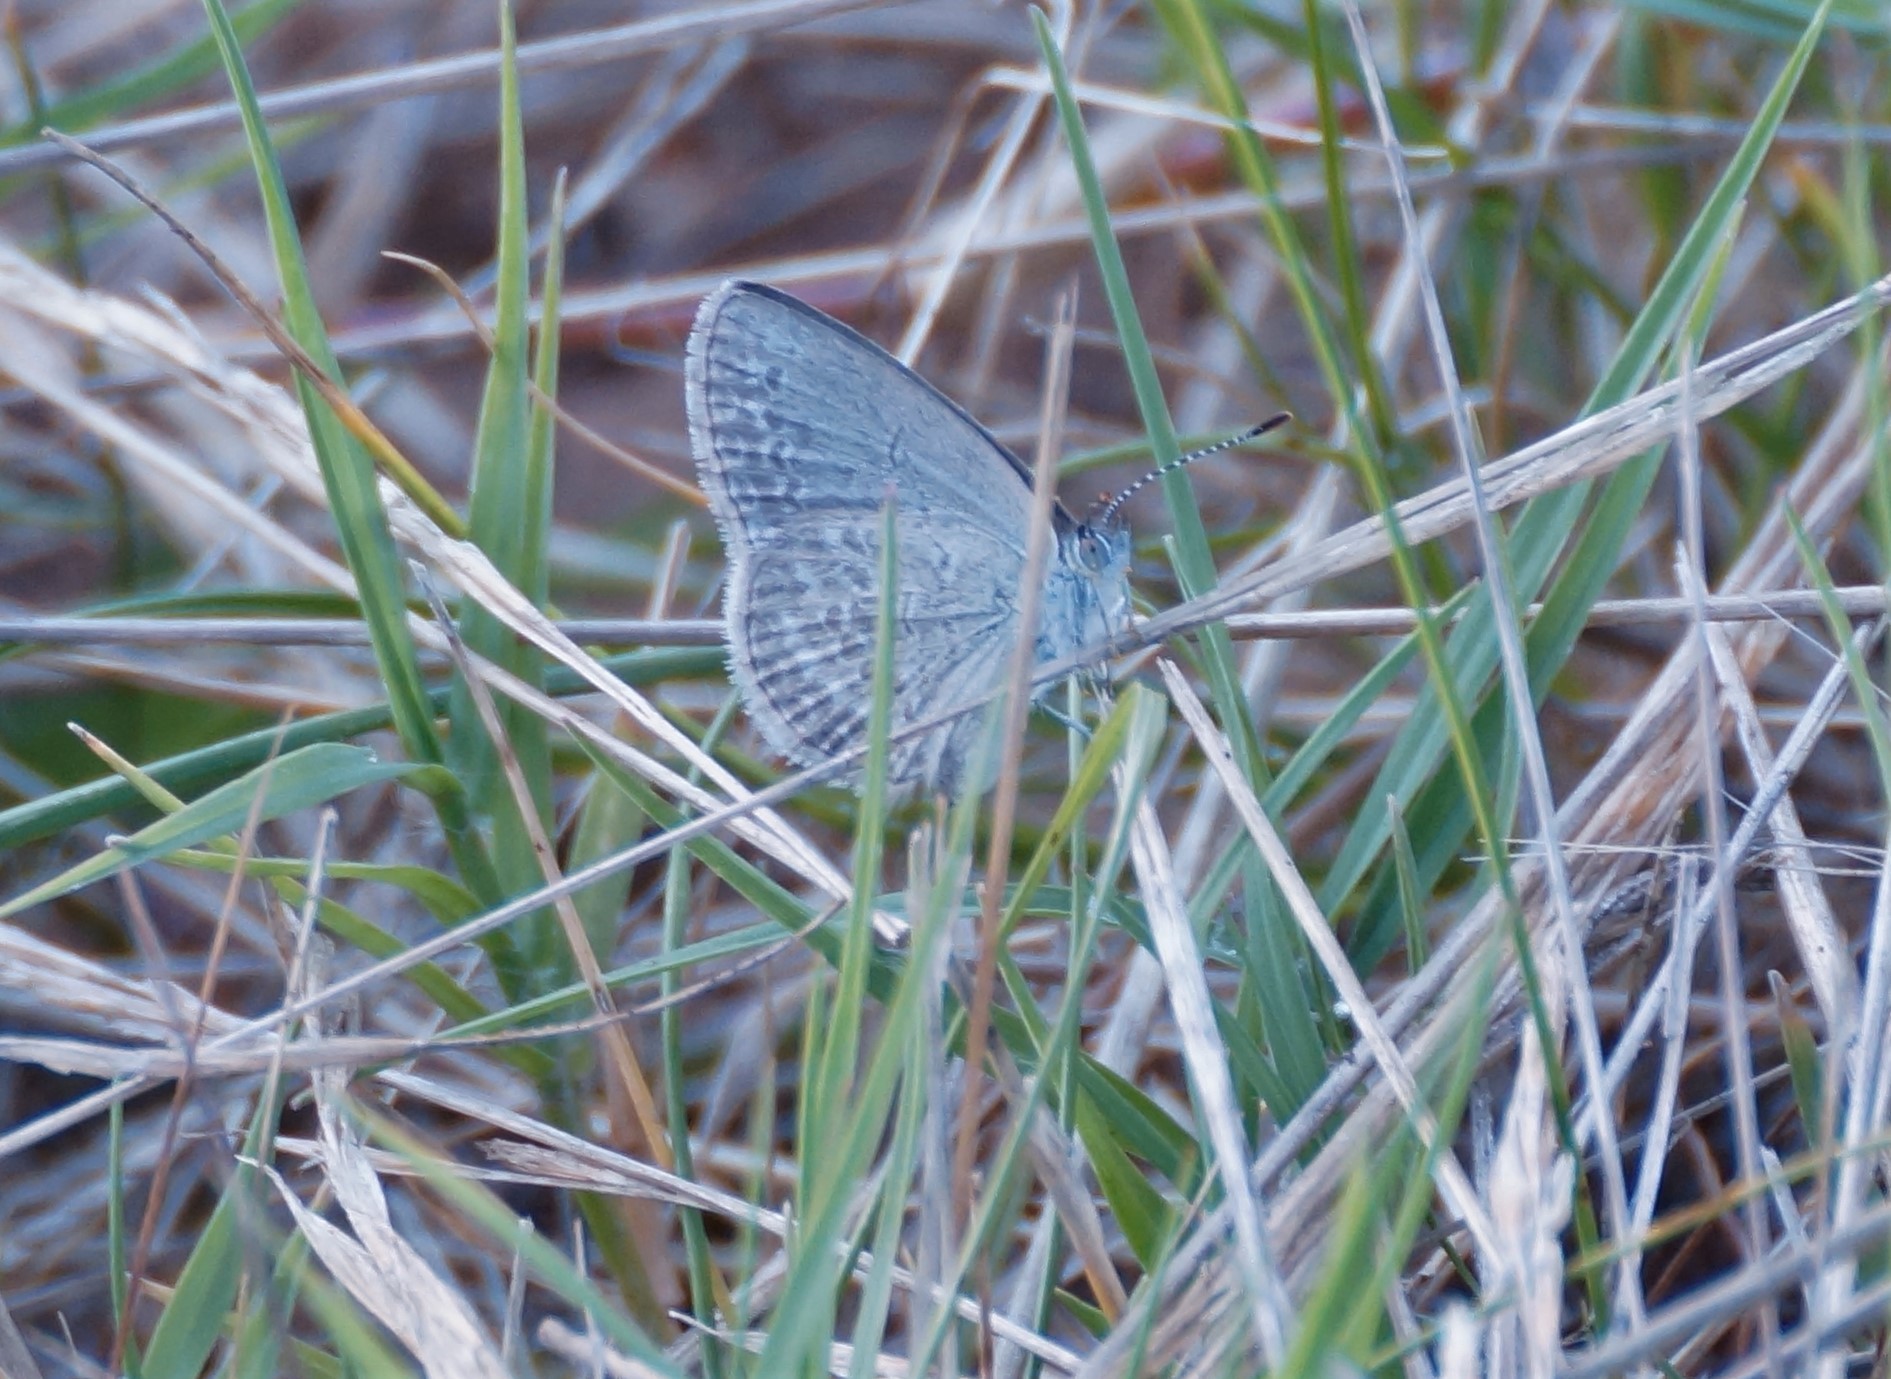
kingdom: Animalia
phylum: Arthropoda
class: Insecta
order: Lepidoptera
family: Lycaenidae
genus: Zizina
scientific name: Zizina labradus
